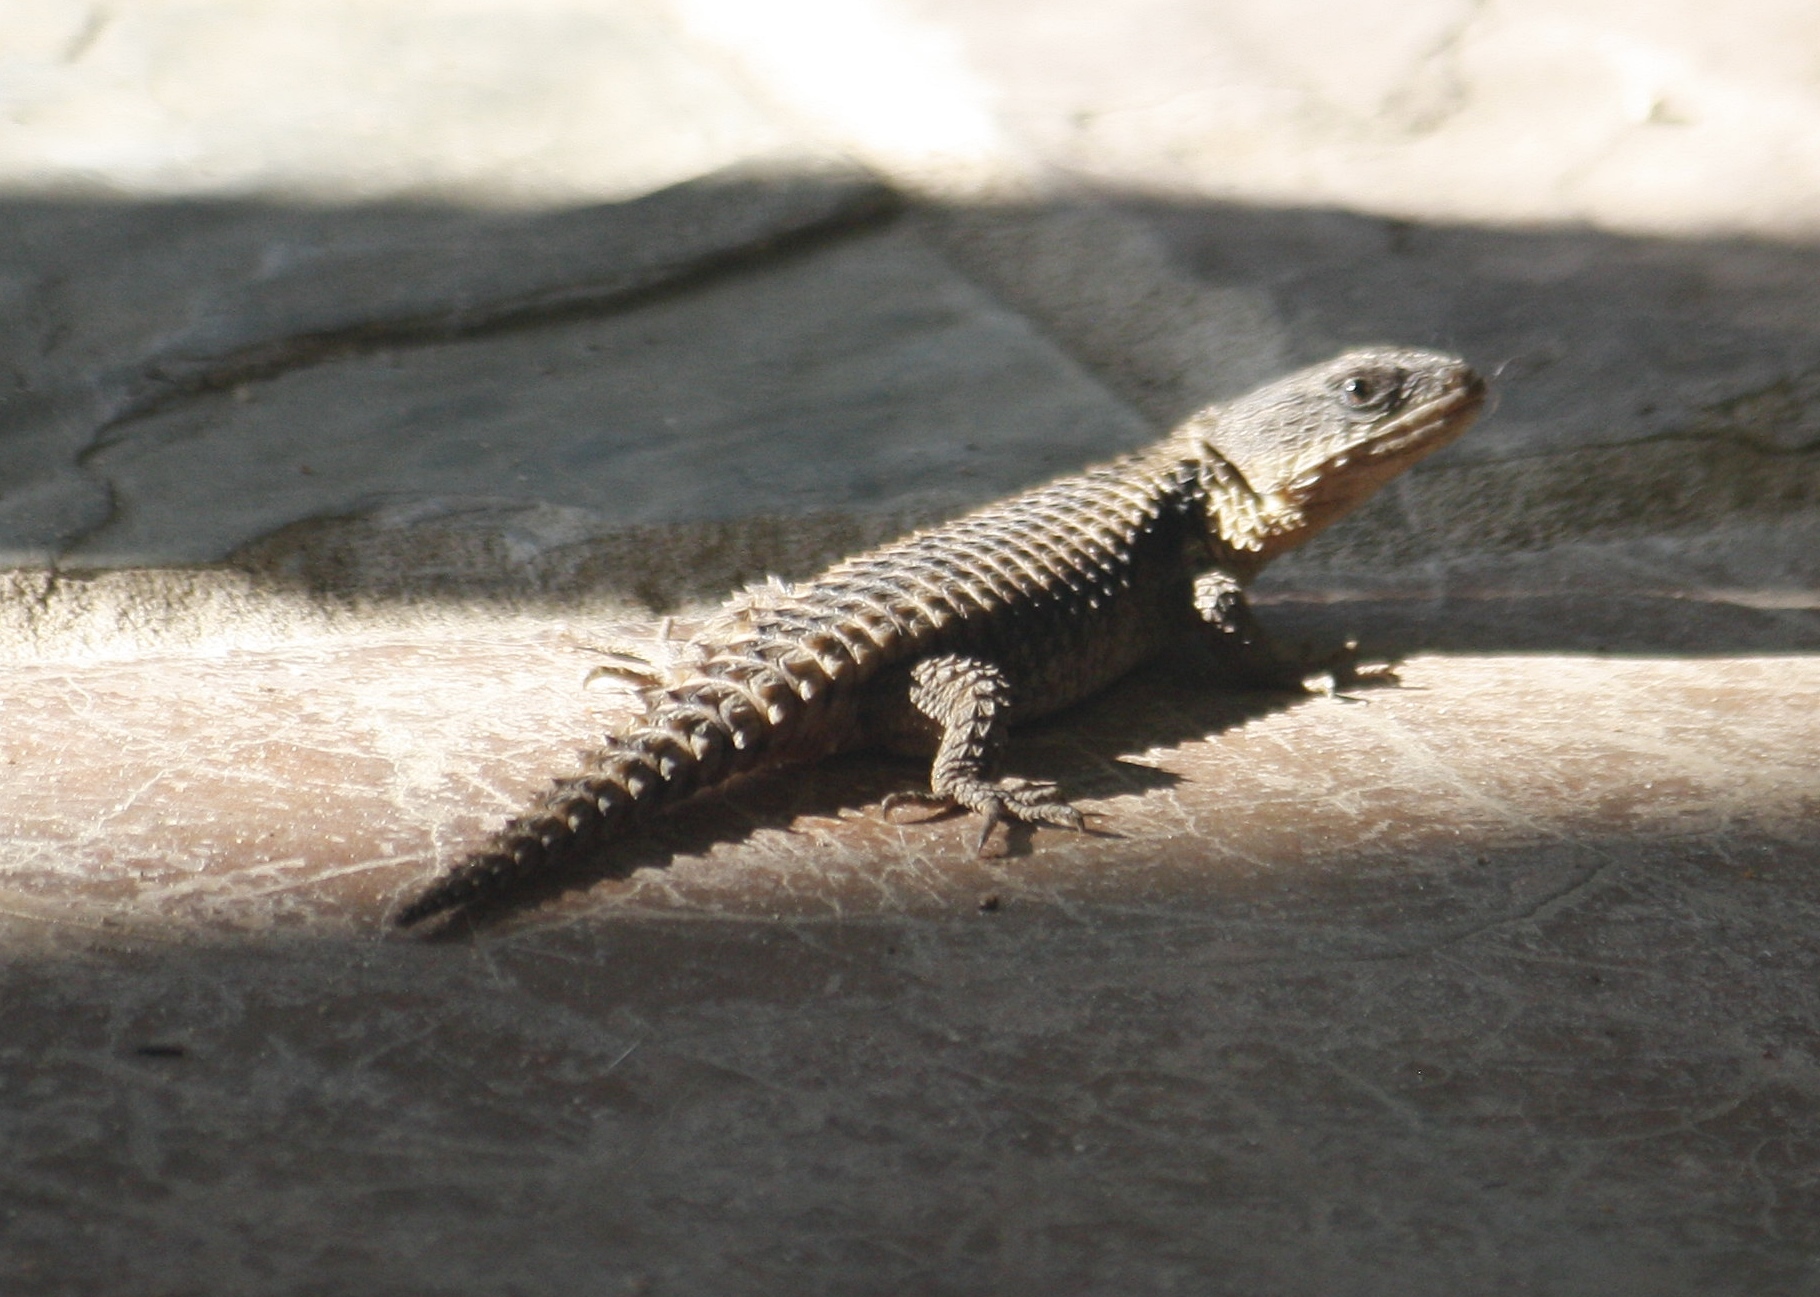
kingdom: Animalia
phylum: Chordata
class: Squamata
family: Cordylidae
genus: Cordylus
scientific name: Cordylus jonesii
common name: Jones' girdled lizard
